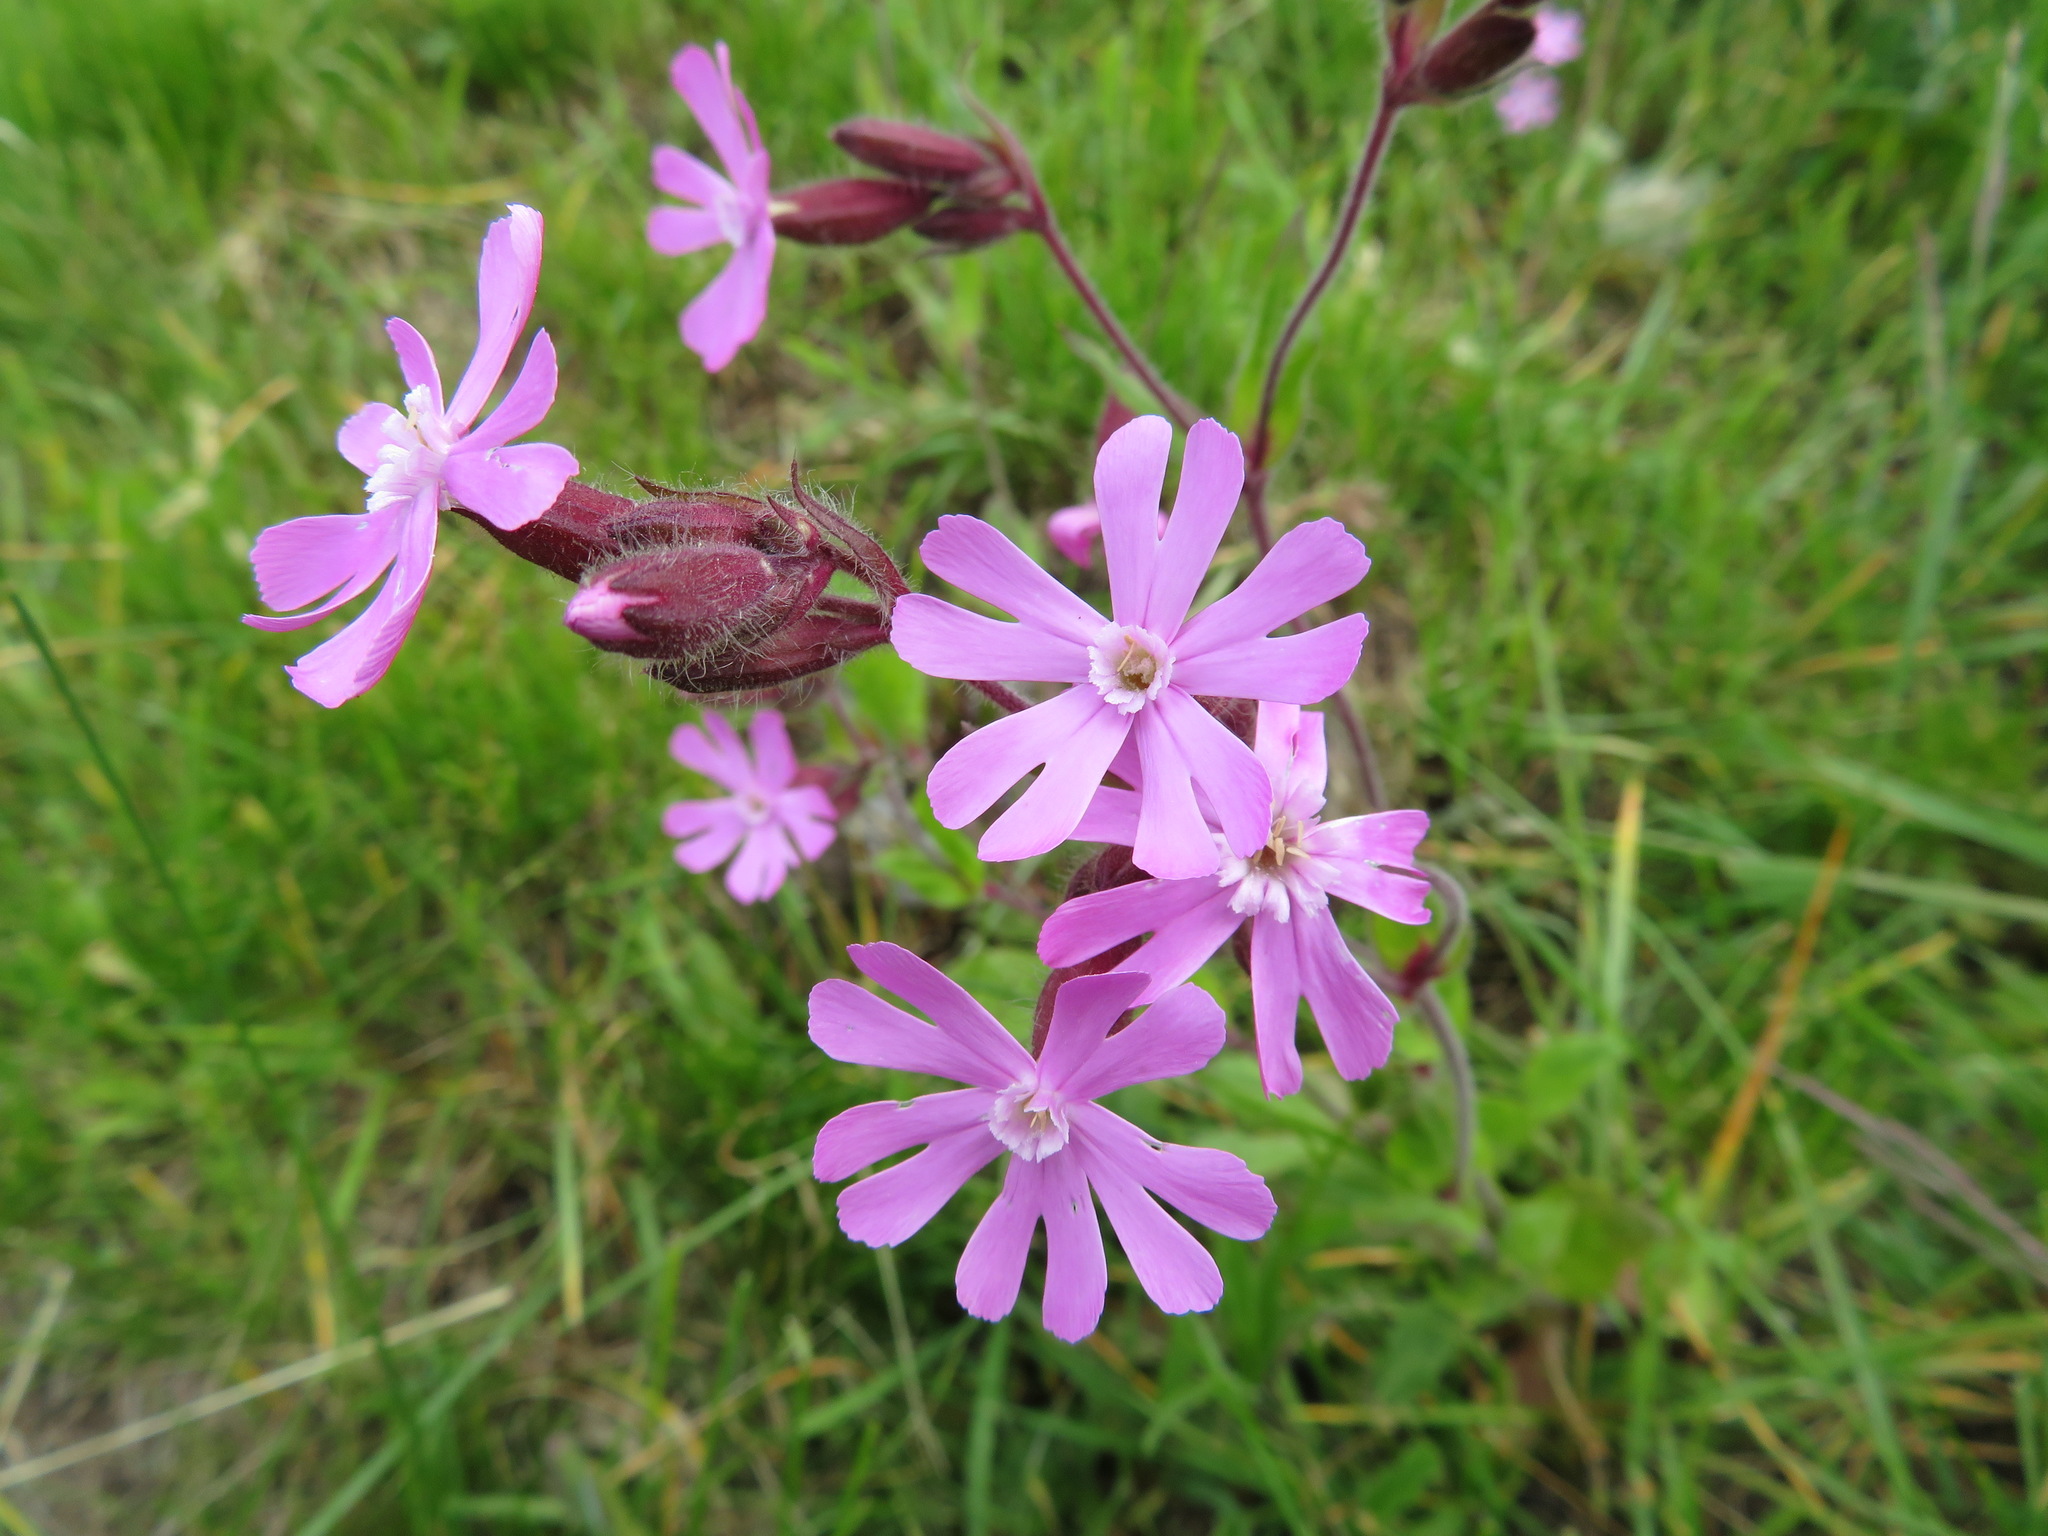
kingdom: Plantae
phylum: Tracheophyta
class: Magnoliopsida
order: Caryophyllales
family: Caryophyllaceae
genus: Silene
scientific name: Silene dioica
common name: Red campion
